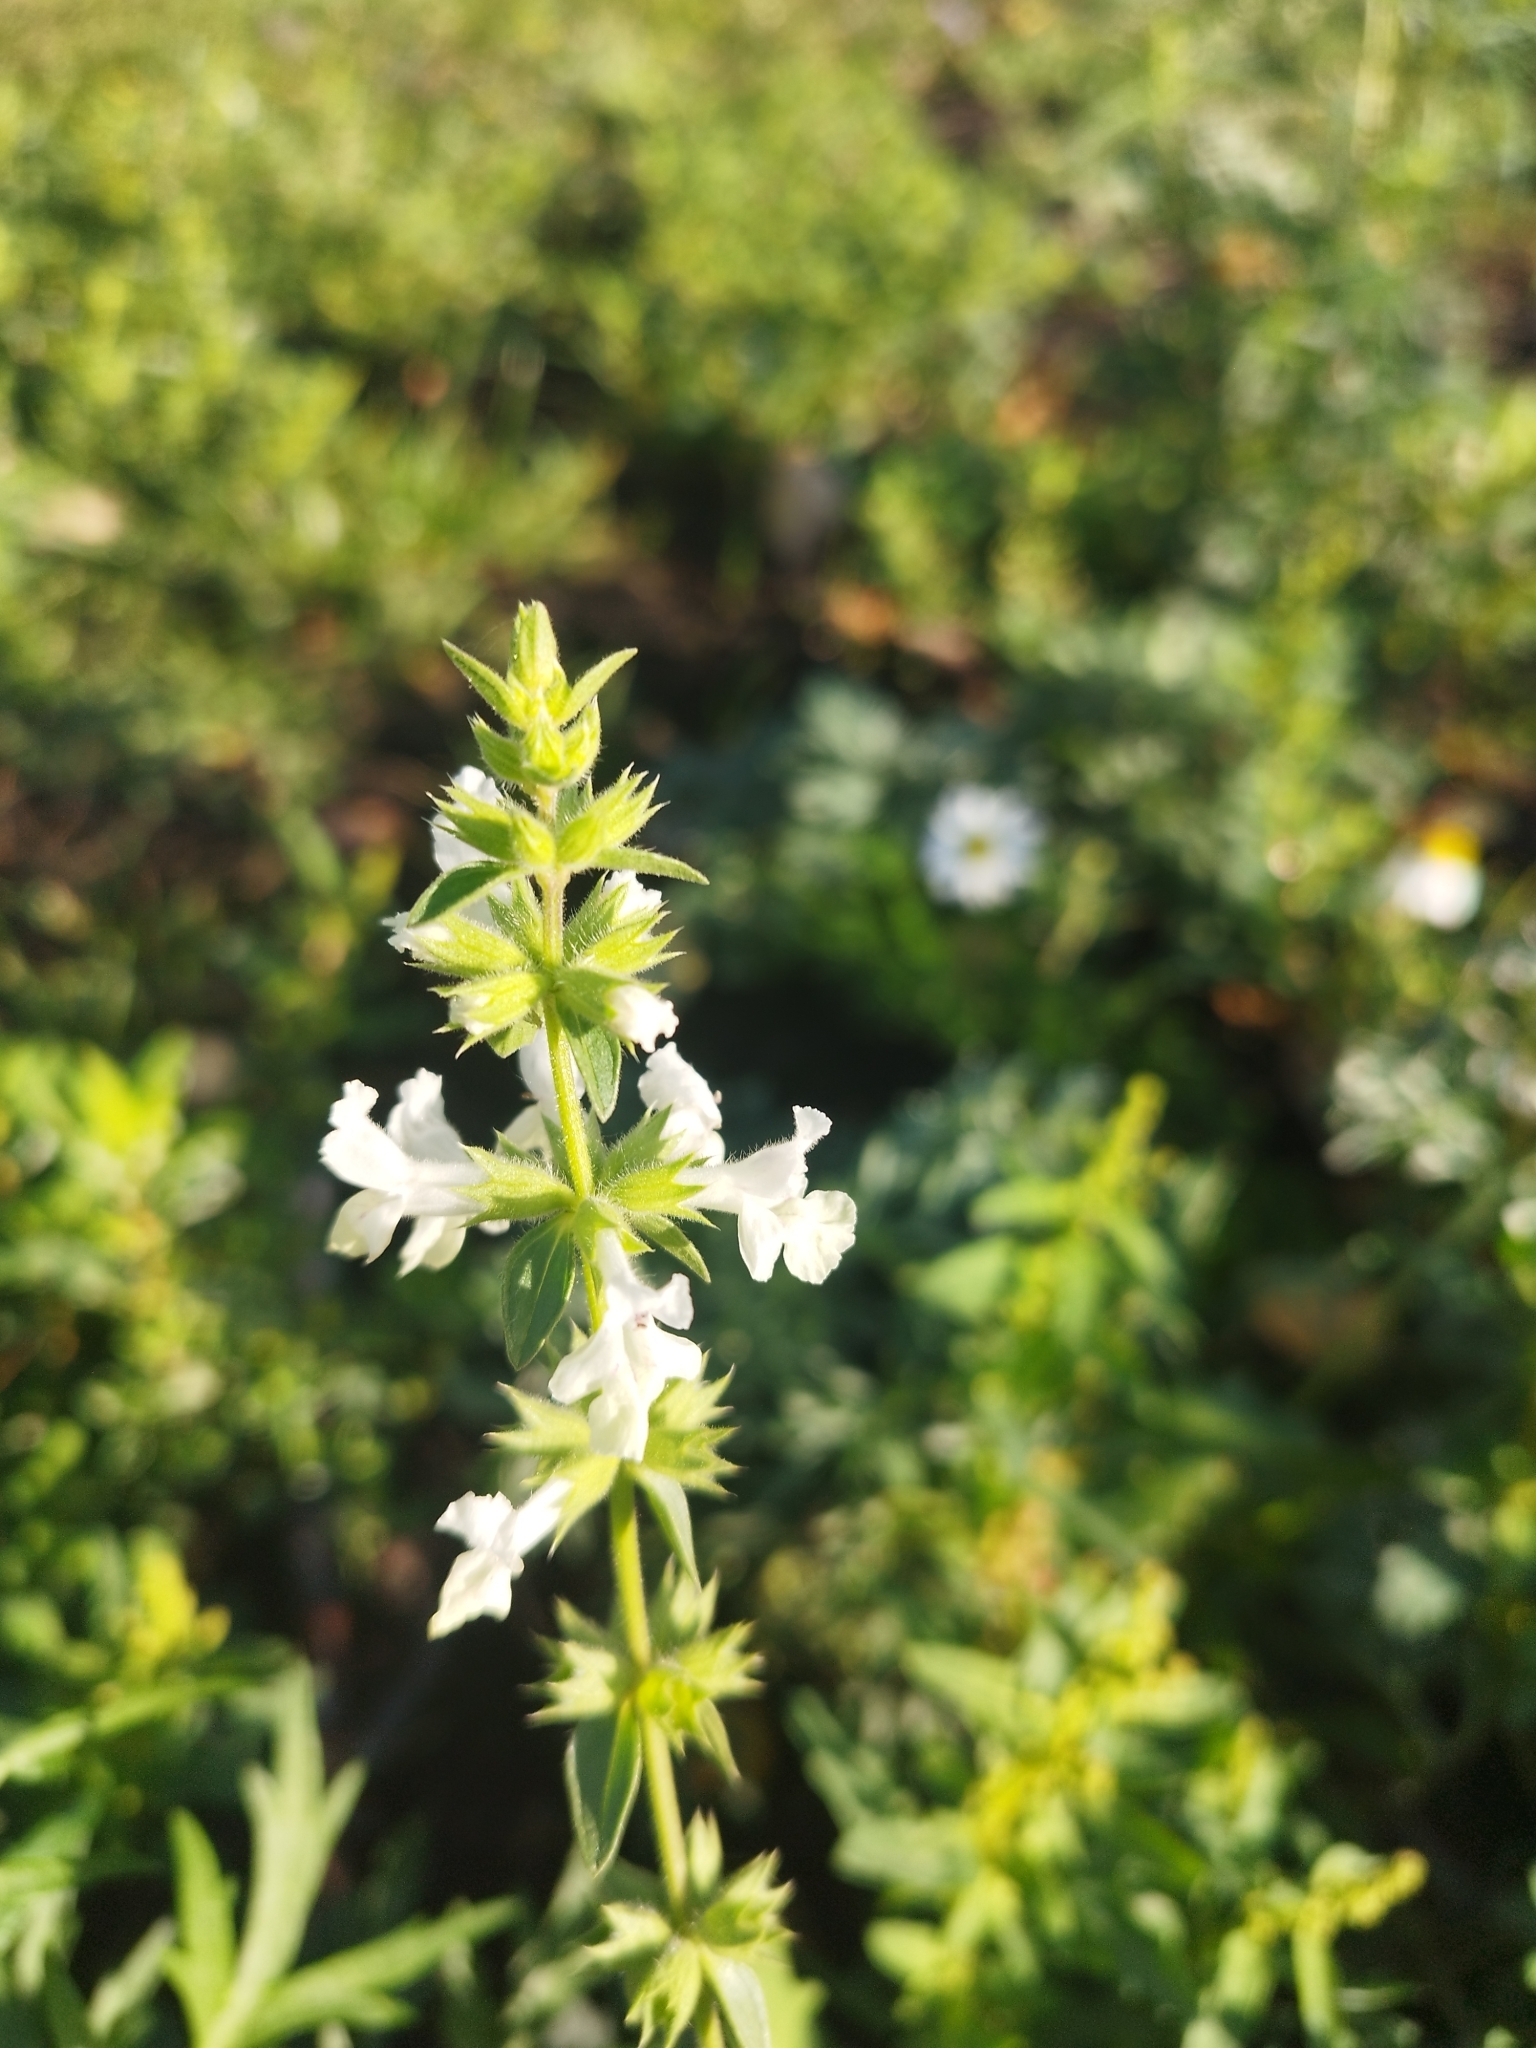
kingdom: Plantae
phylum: Tracheophyta
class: Magnoliopsida
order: Lamiales
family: Lamiaceae
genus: Stachys
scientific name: Stachys annua
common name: Annual yellow-woundwort
